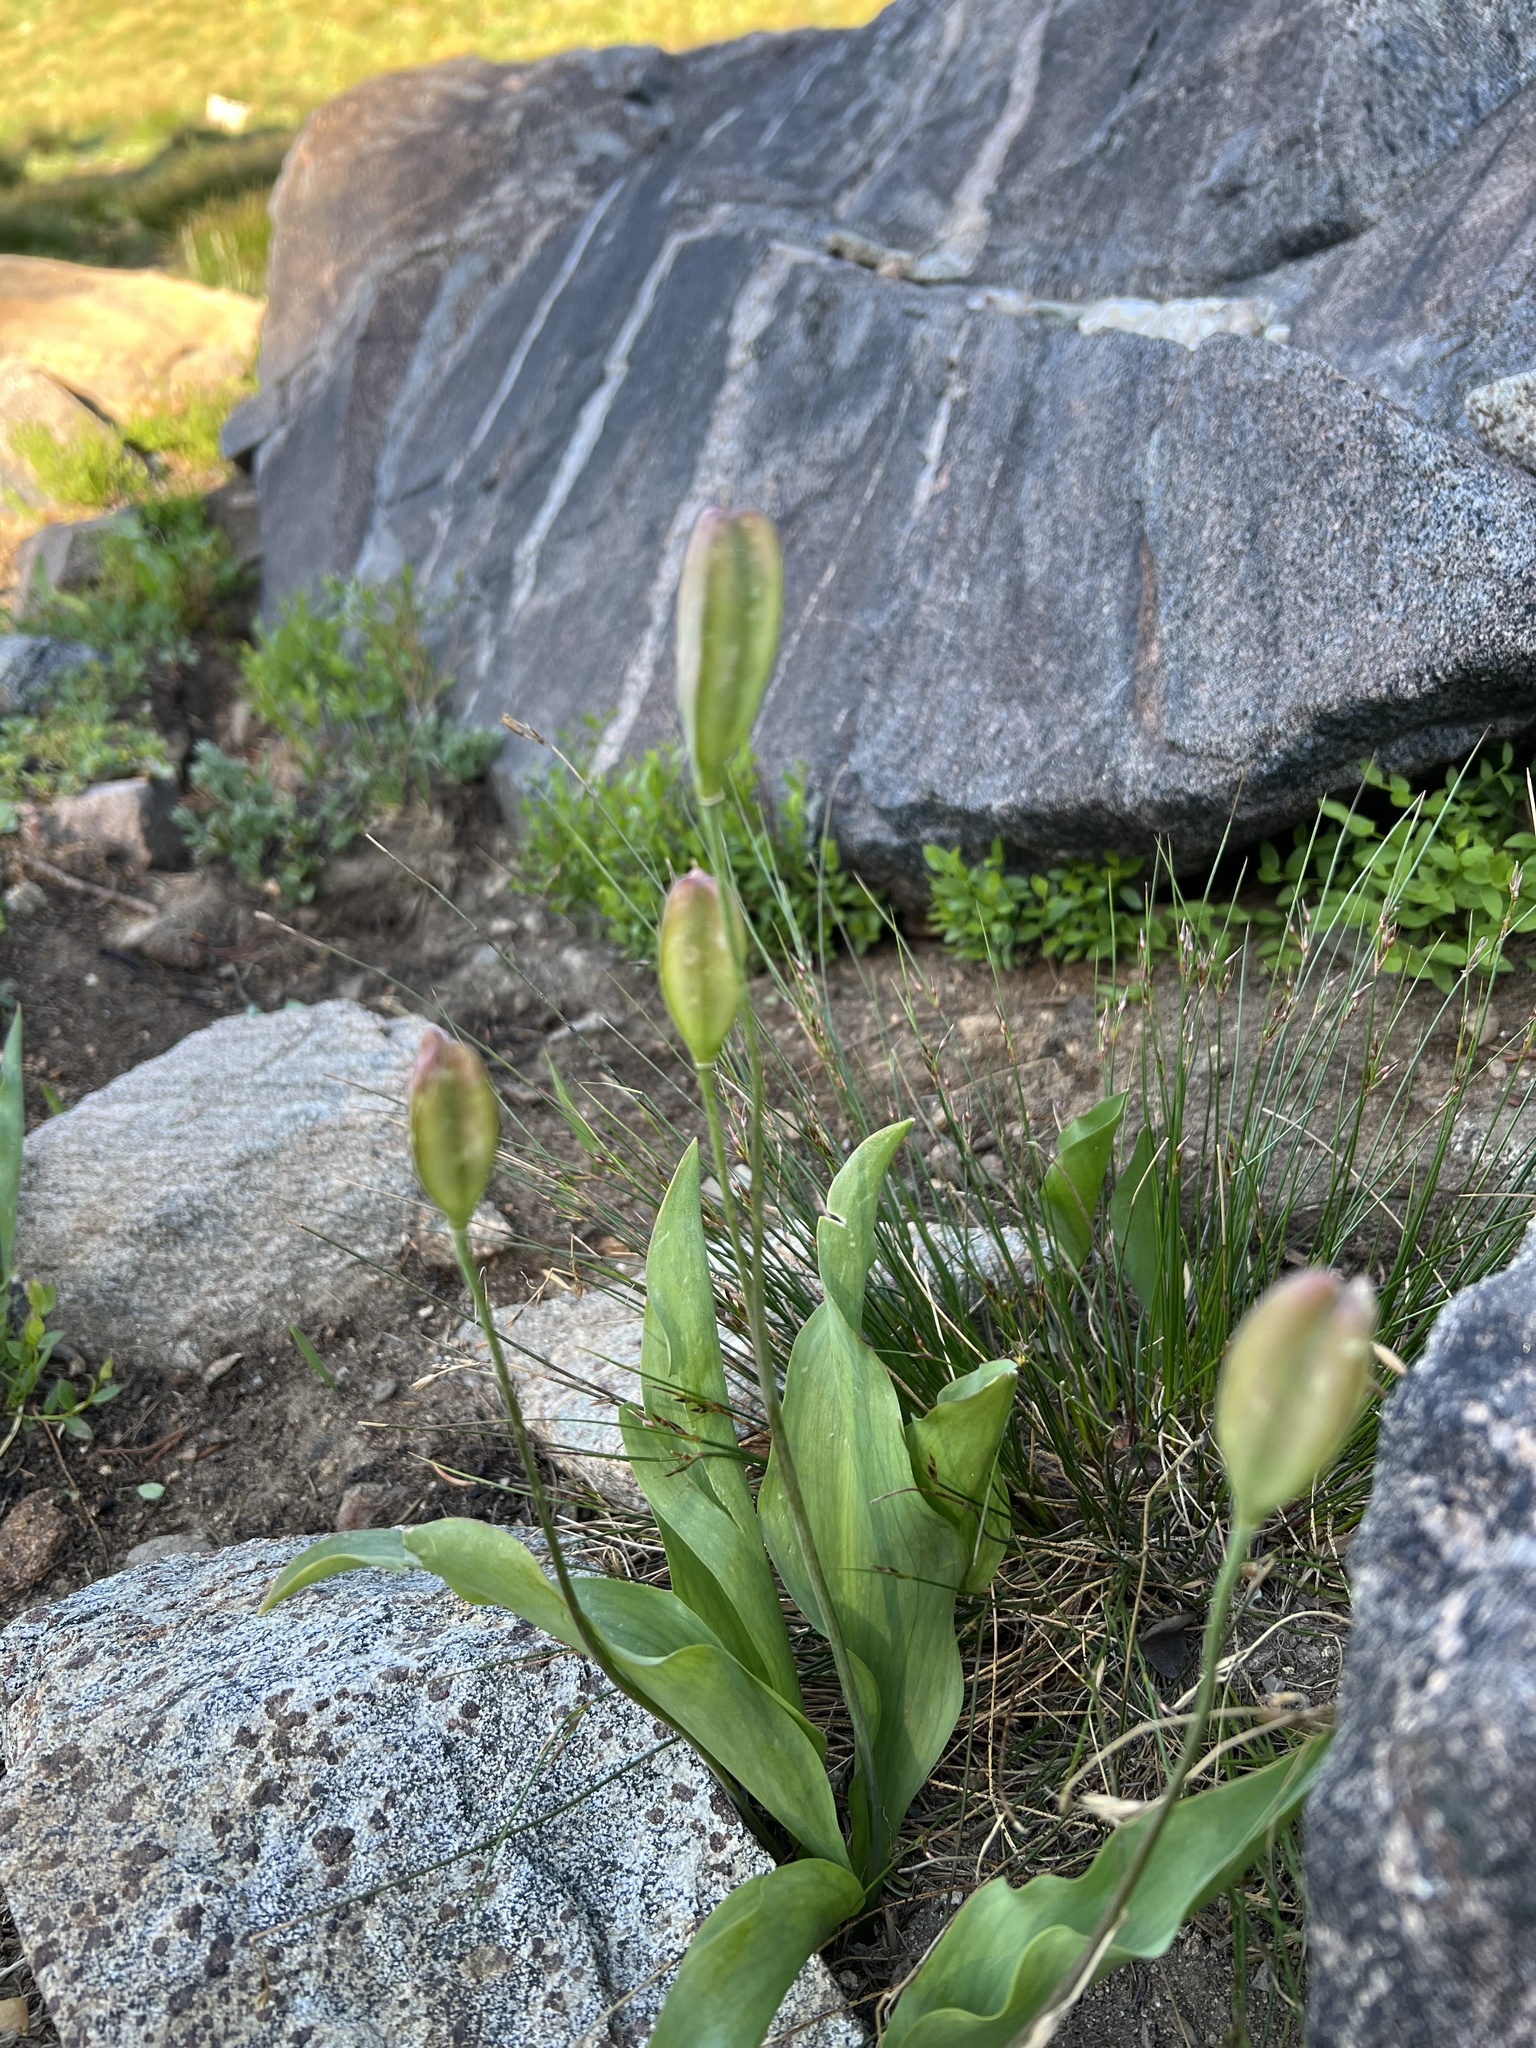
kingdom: Plantae
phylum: Tracheophyta
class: Liliopsida
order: Liliales
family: Liliaceae
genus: Erythronium
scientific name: Erythronium grandiflorum
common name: Avalanche-lily
